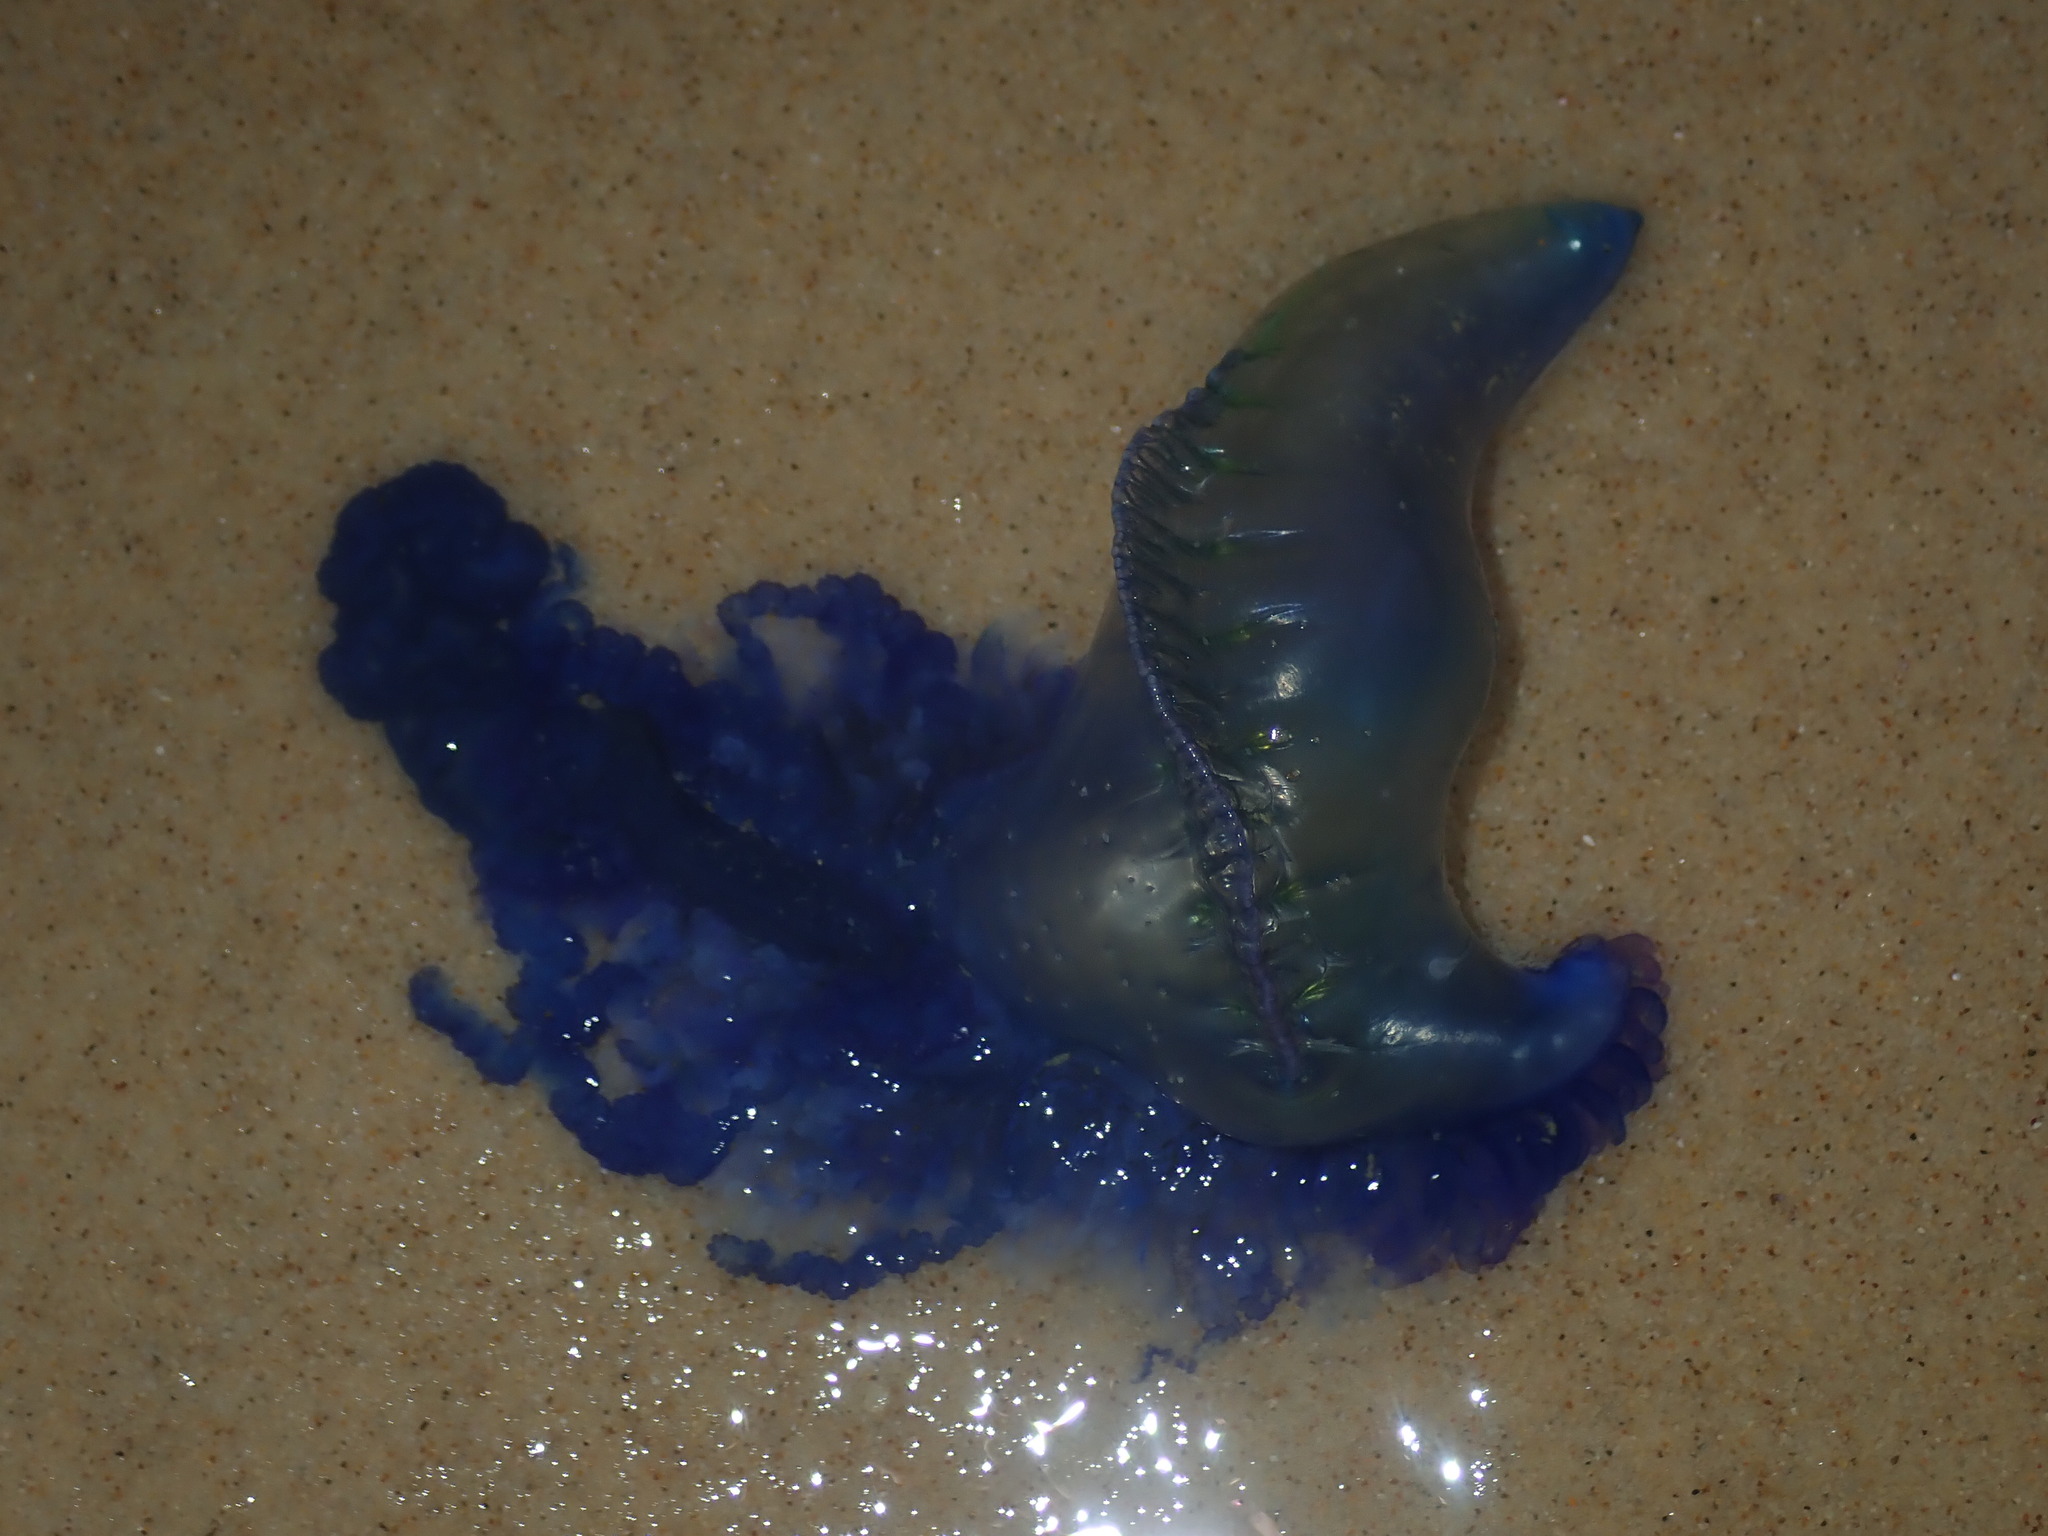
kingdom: Animalia
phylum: Cnidaria
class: Hydrozoa
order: Siphonophorae
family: Physaliidae
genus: Physalia
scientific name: Physalia physalis
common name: Portuguese man-of-war
